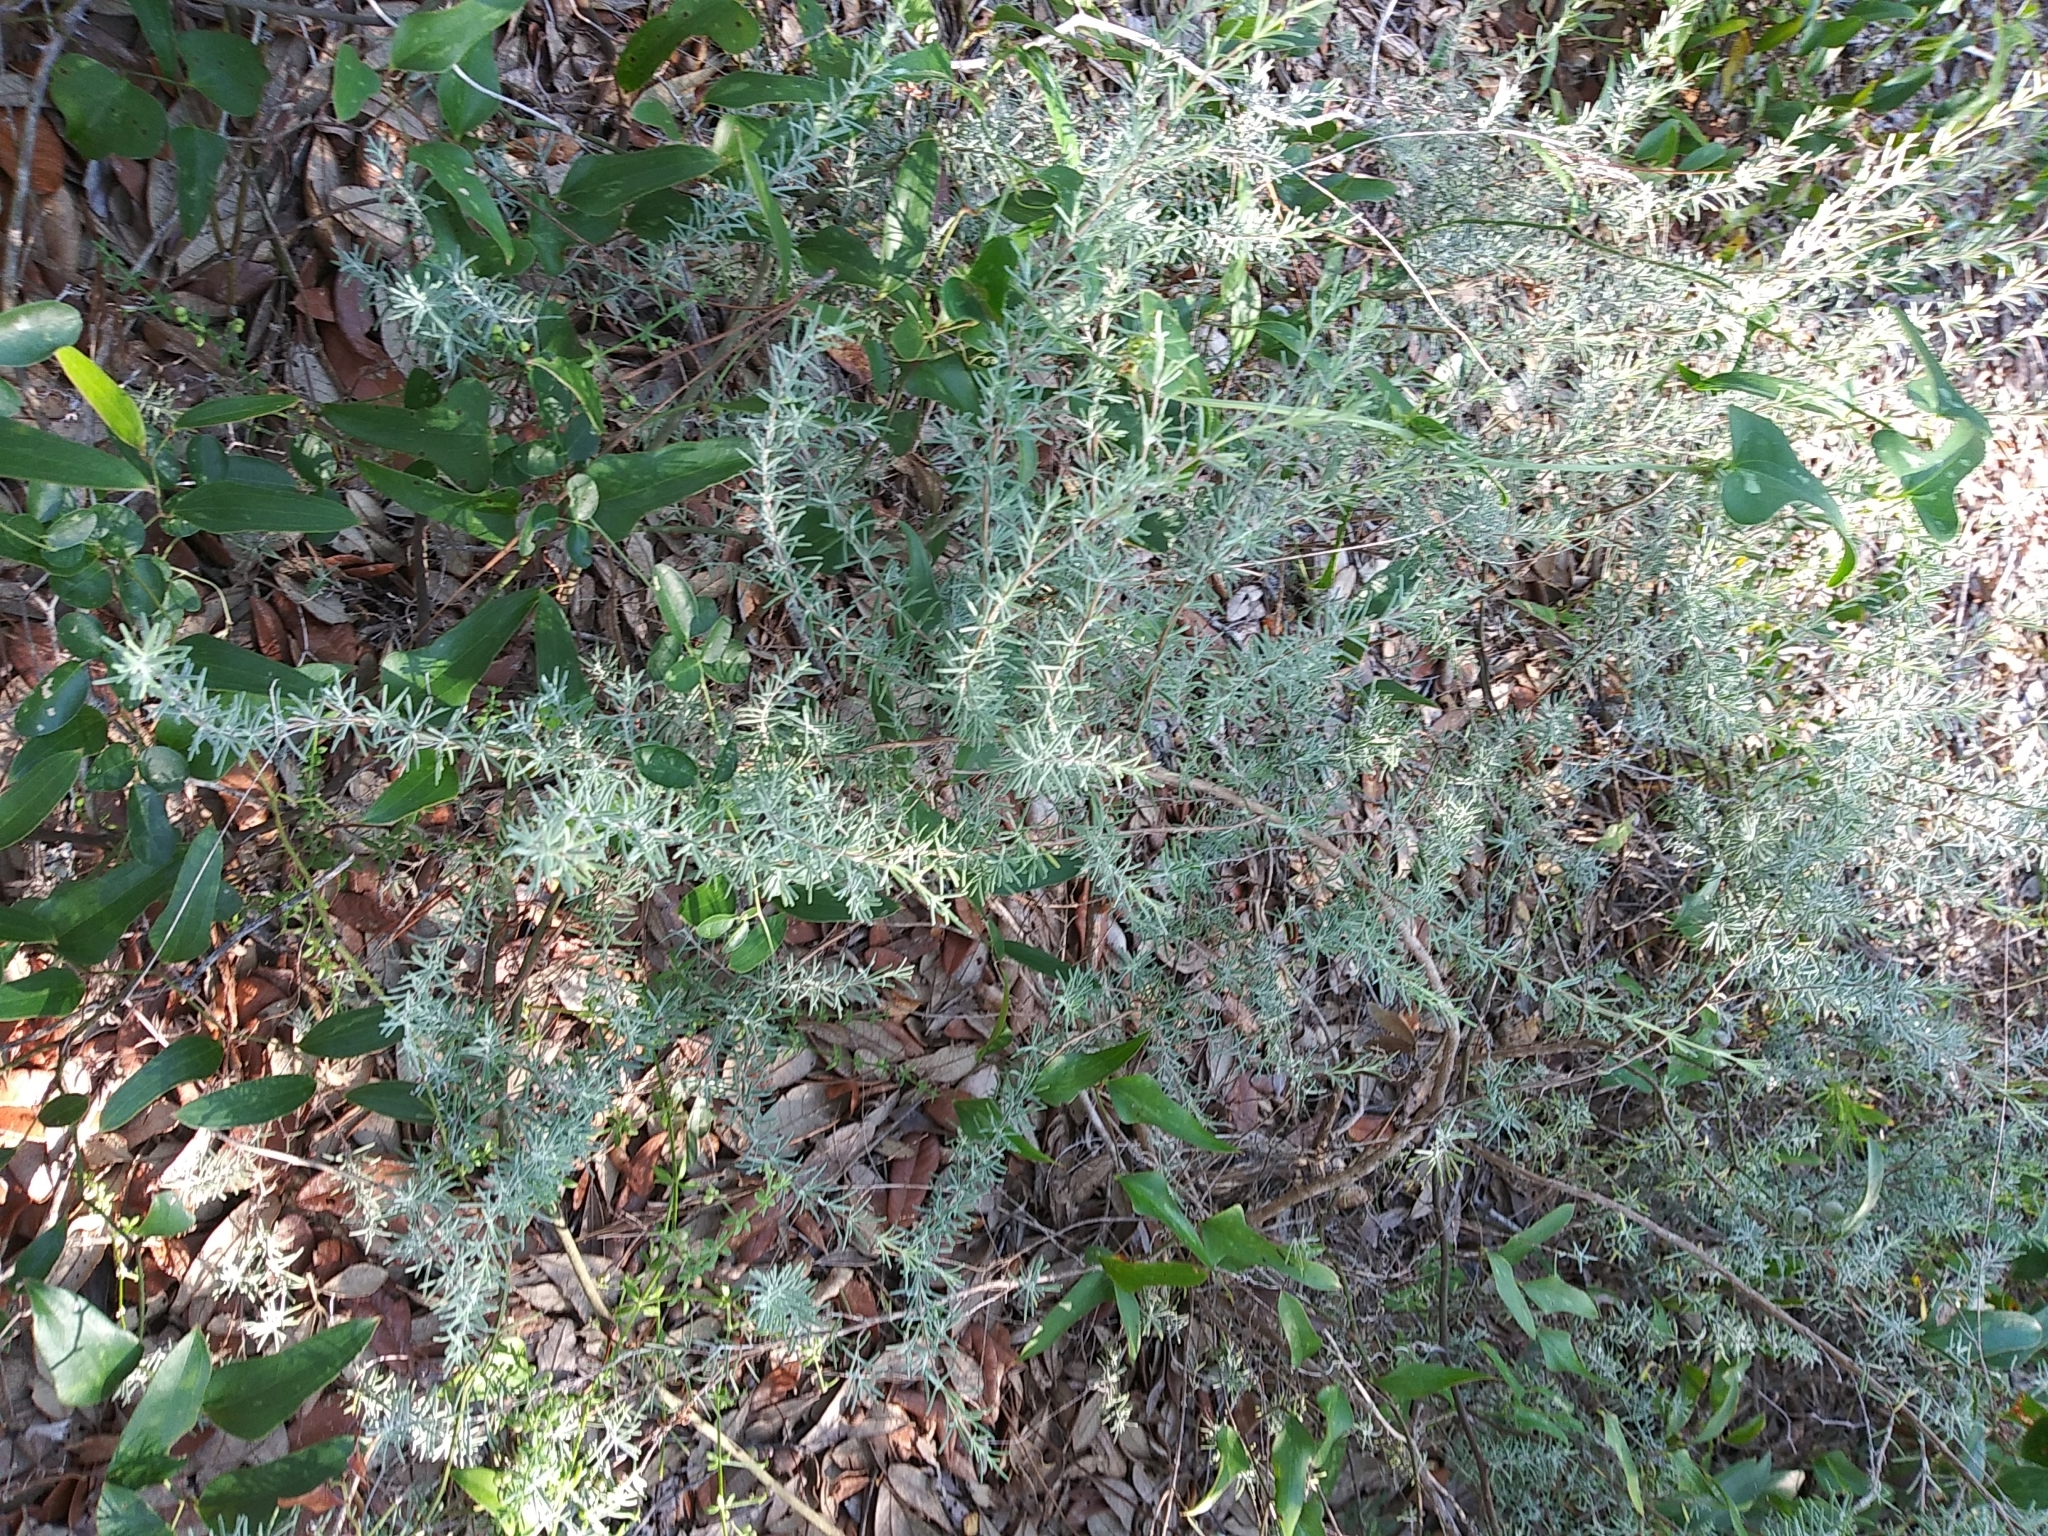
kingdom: Plantae
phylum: Tracheophyta
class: Magnoliopsida
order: Lamiales
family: Lamiaceae
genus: Conradina
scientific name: Conradina canescens
